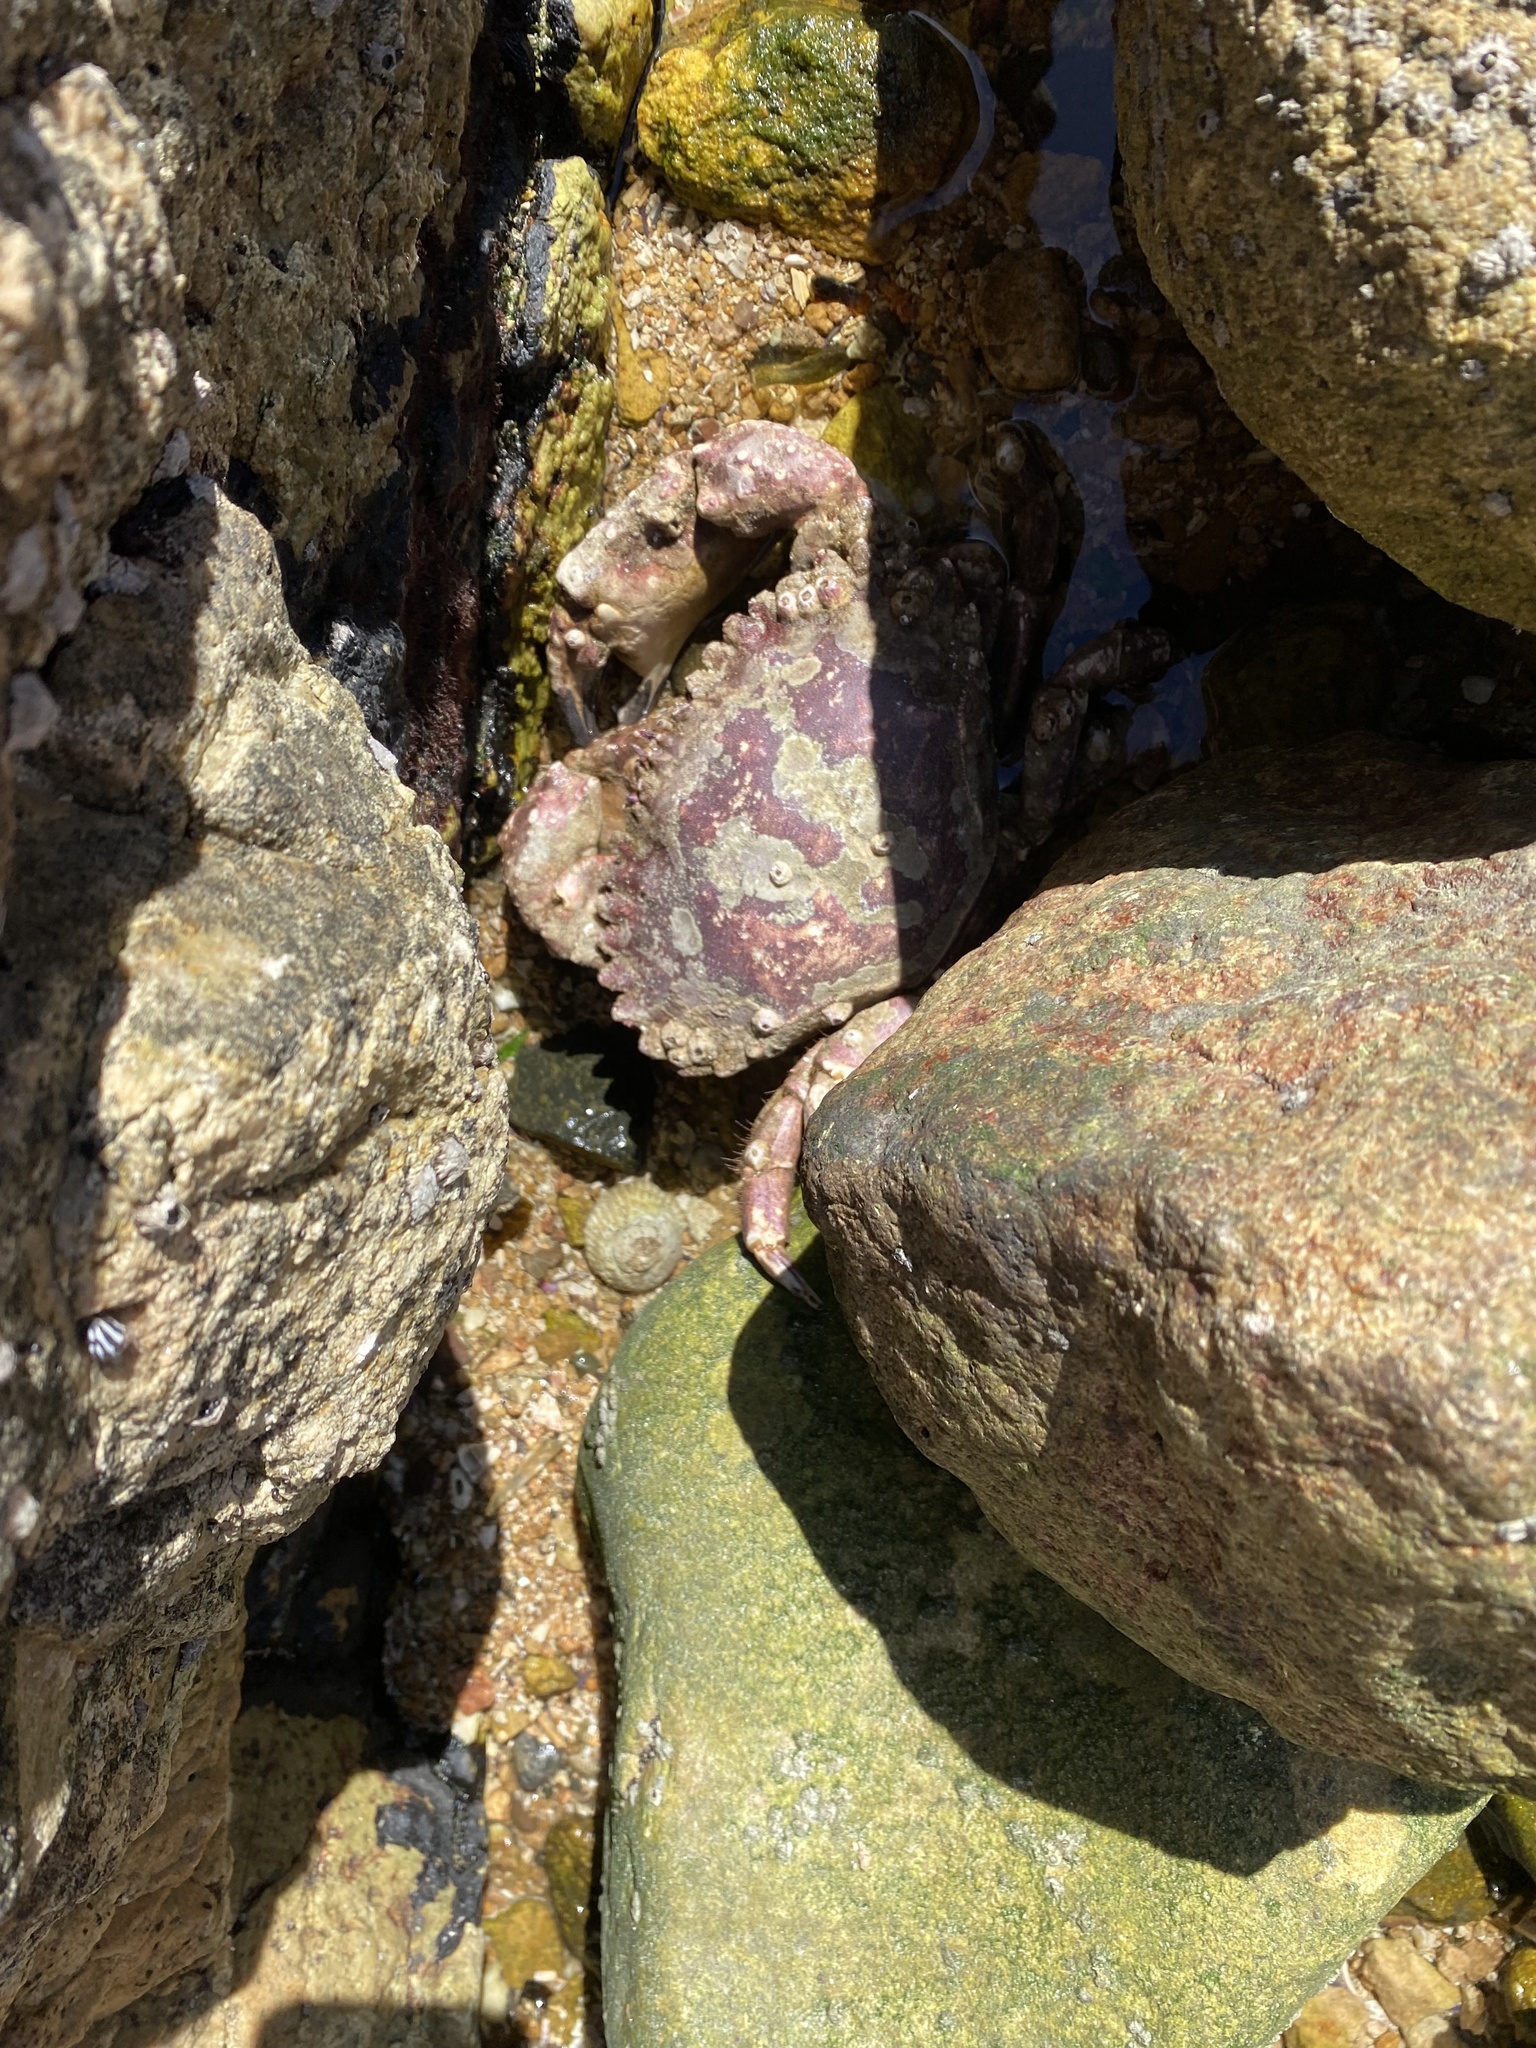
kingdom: Animalia
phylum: Arthropoda
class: Malacostraca
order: Decapoda
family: Cancridae
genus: Romaleon
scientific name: Romaleon setosum
